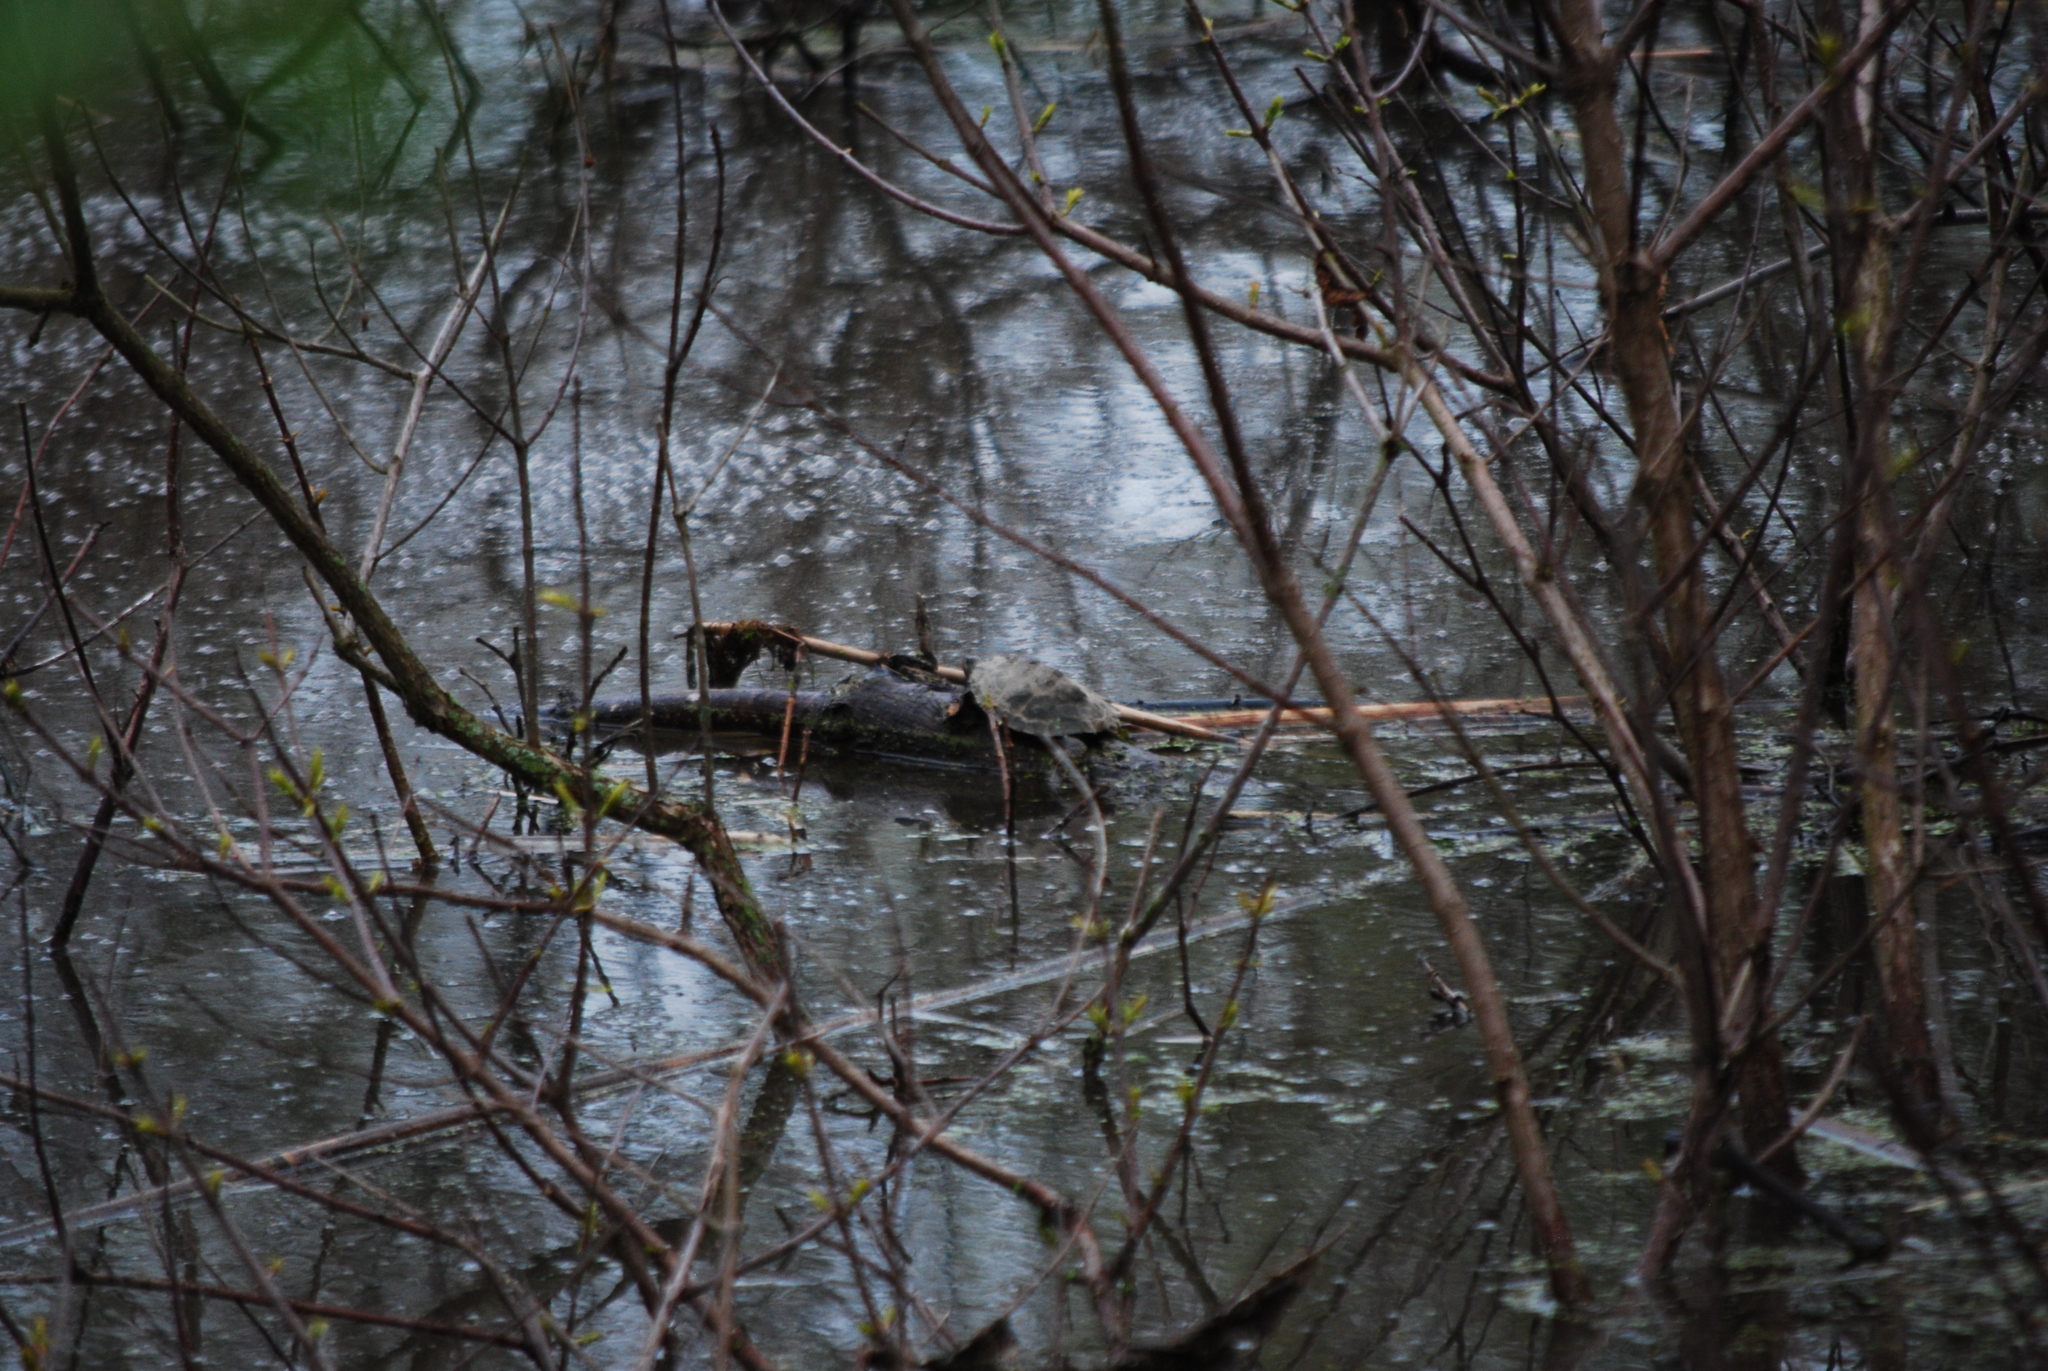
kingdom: Animalia
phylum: Chordata
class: Testudines
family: Emydidae
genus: Graptemys
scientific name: Graptemys geographica
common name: Common map turtle
